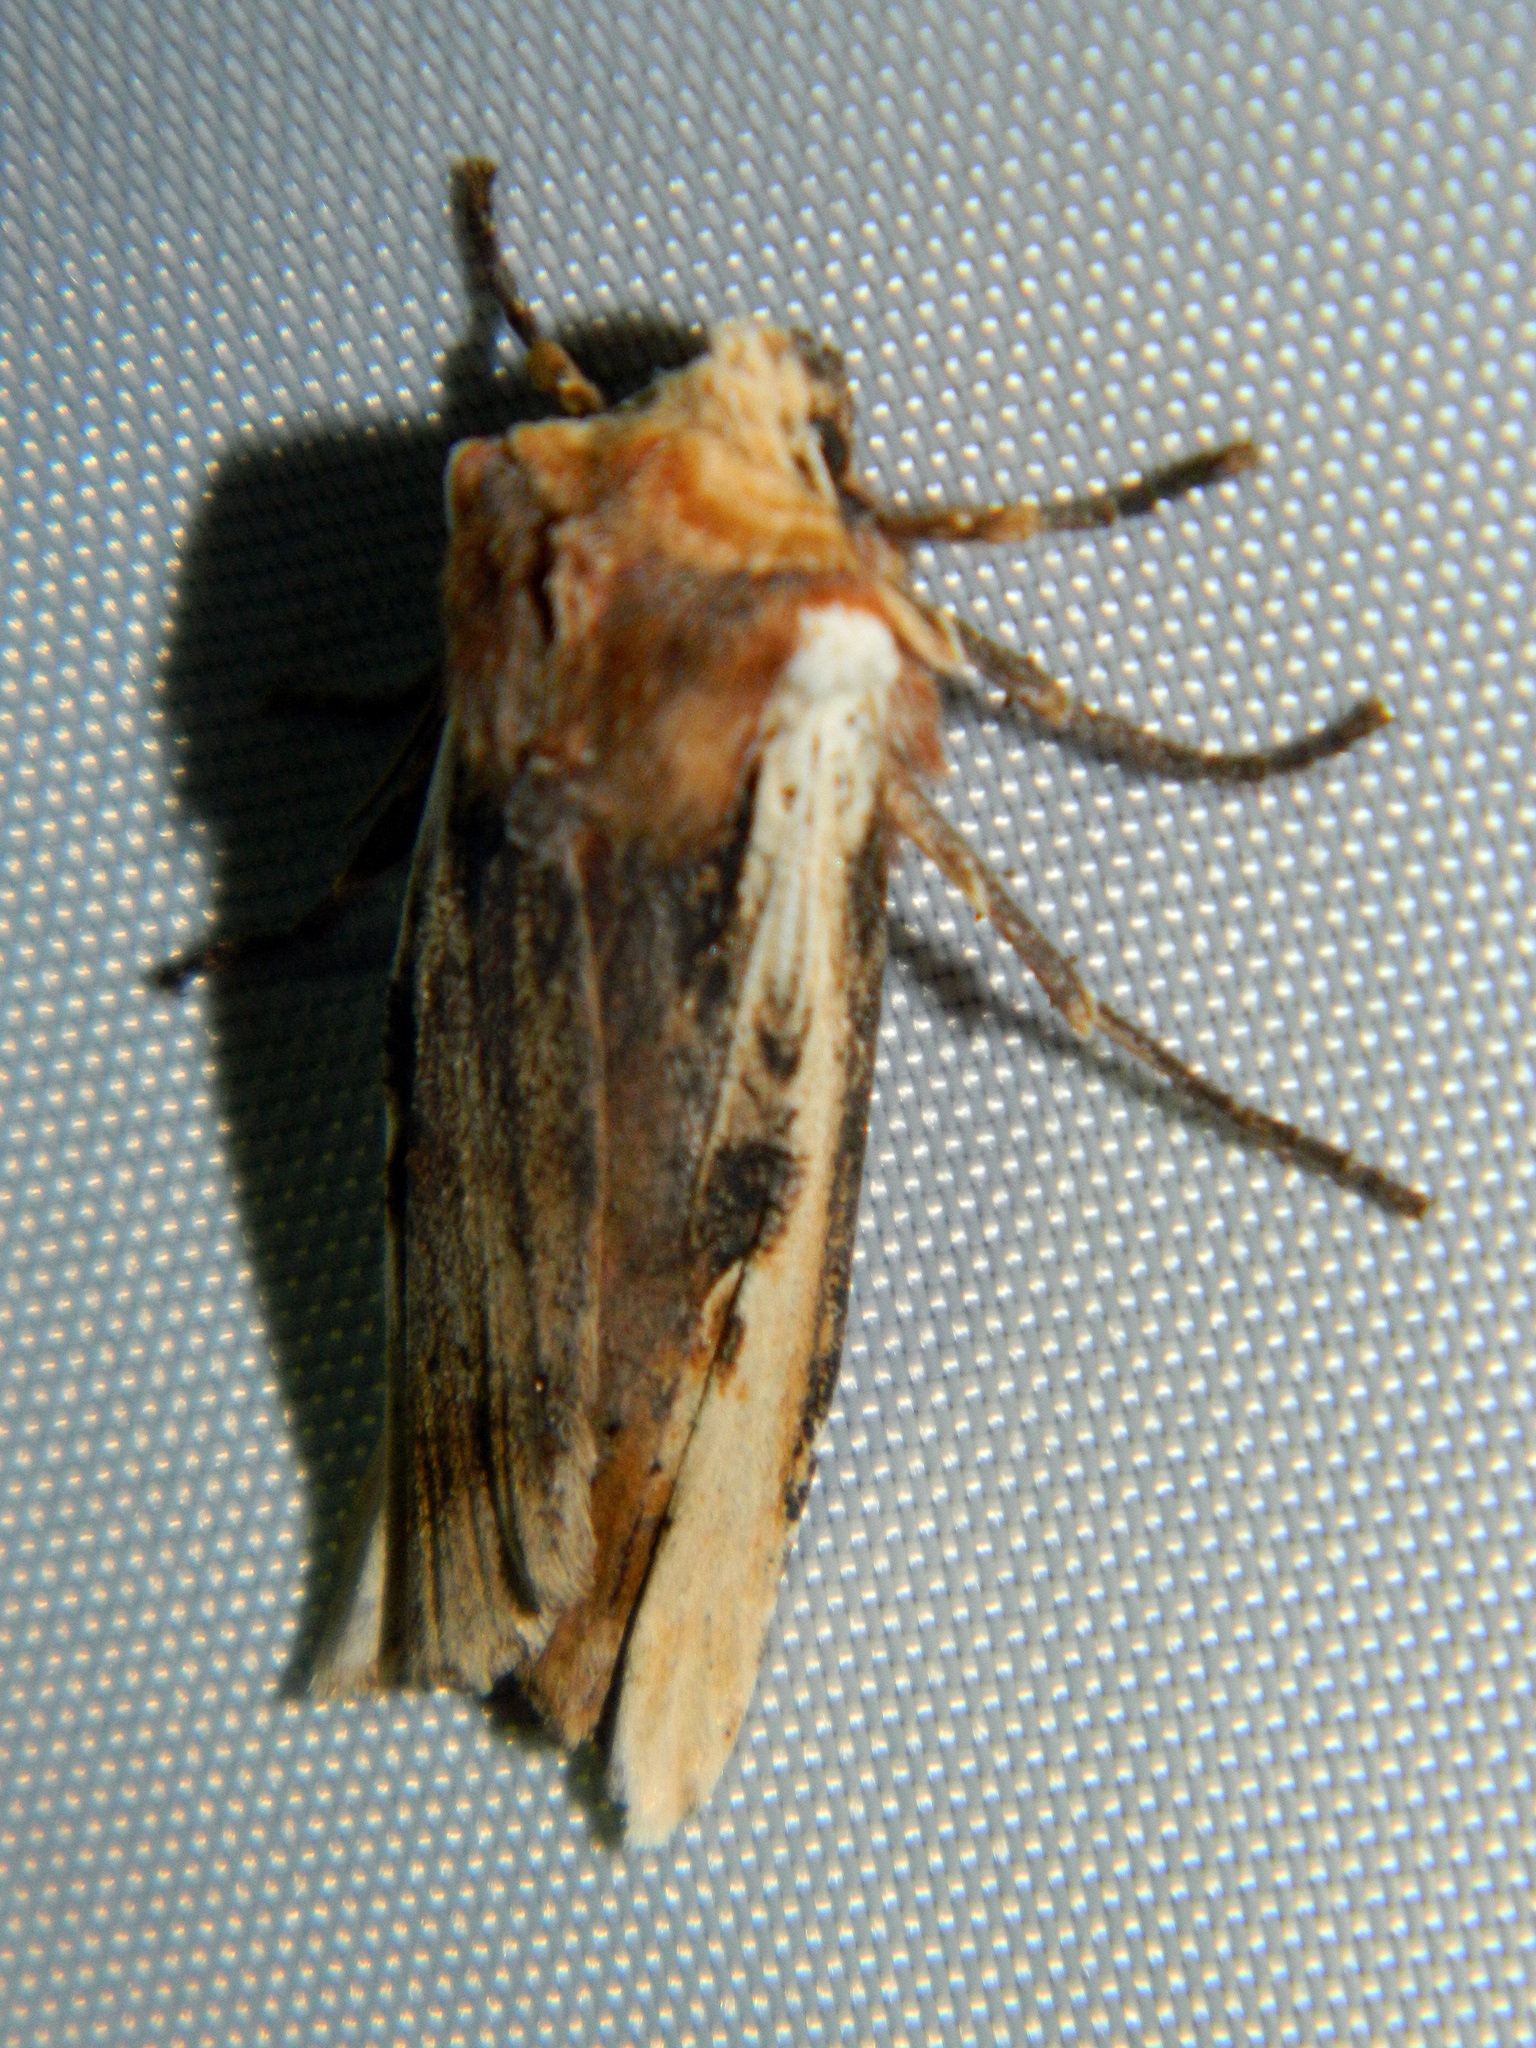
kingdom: Animalia
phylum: Arthropoda
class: Insecta
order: Lepidoptera
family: Noctuidae
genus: Xylena
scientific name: Xylena curvimacula
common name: Dot-and-dash swordgrass moth
